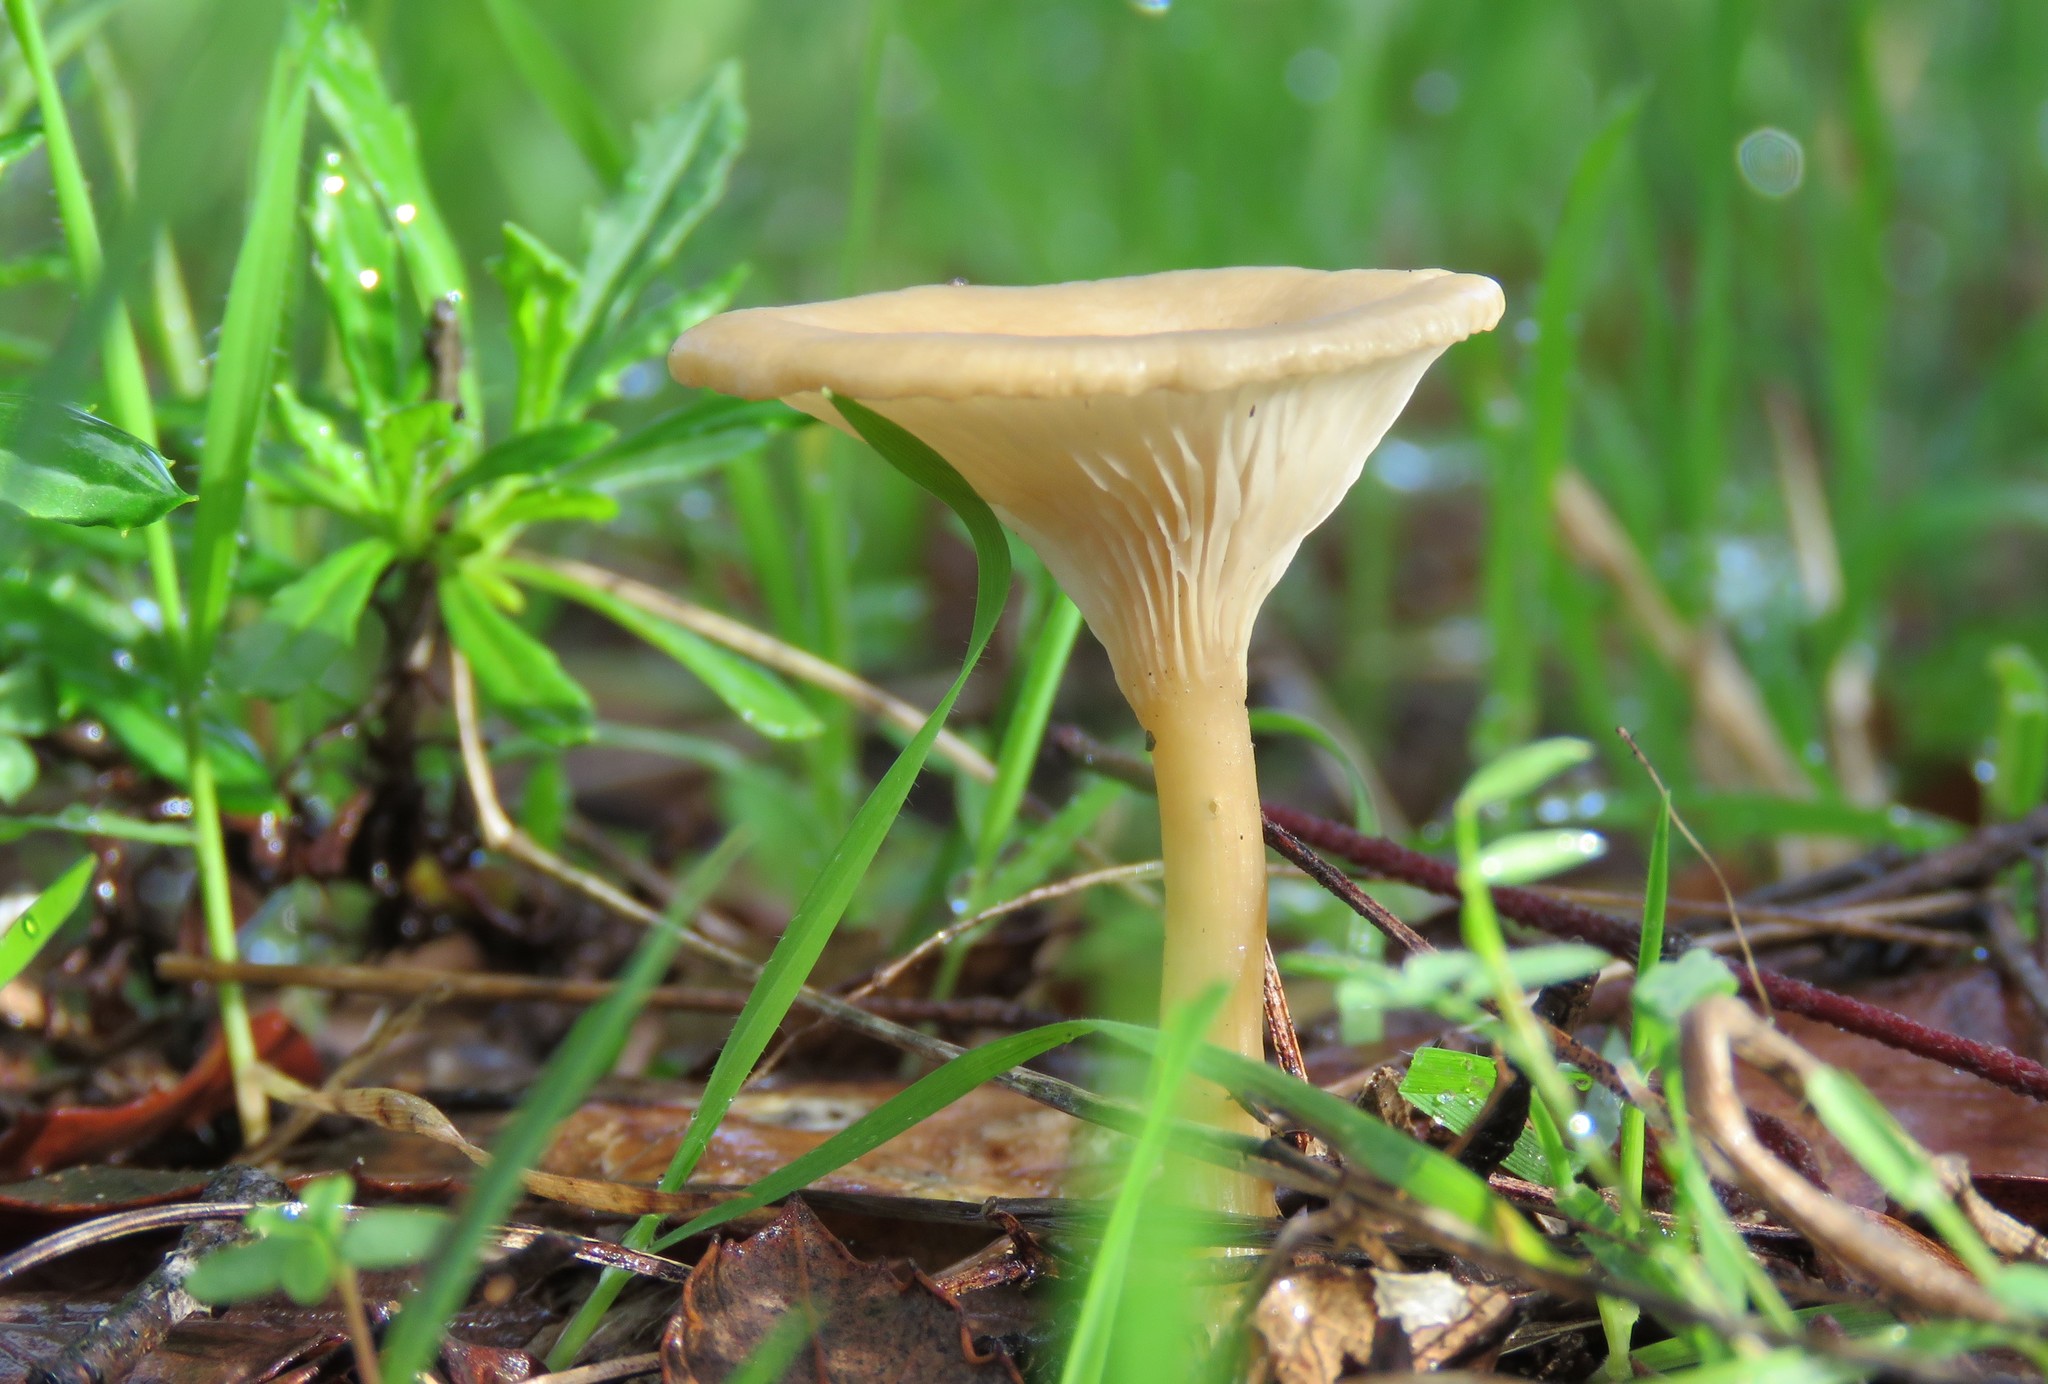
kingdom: Fungi
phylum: Basidiomycota
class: Agaricomycetes
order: Agaricales
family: Tricholomataceae
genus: Infundibulicybe
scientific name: Infundibulicybe gibba
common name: Common funnel
